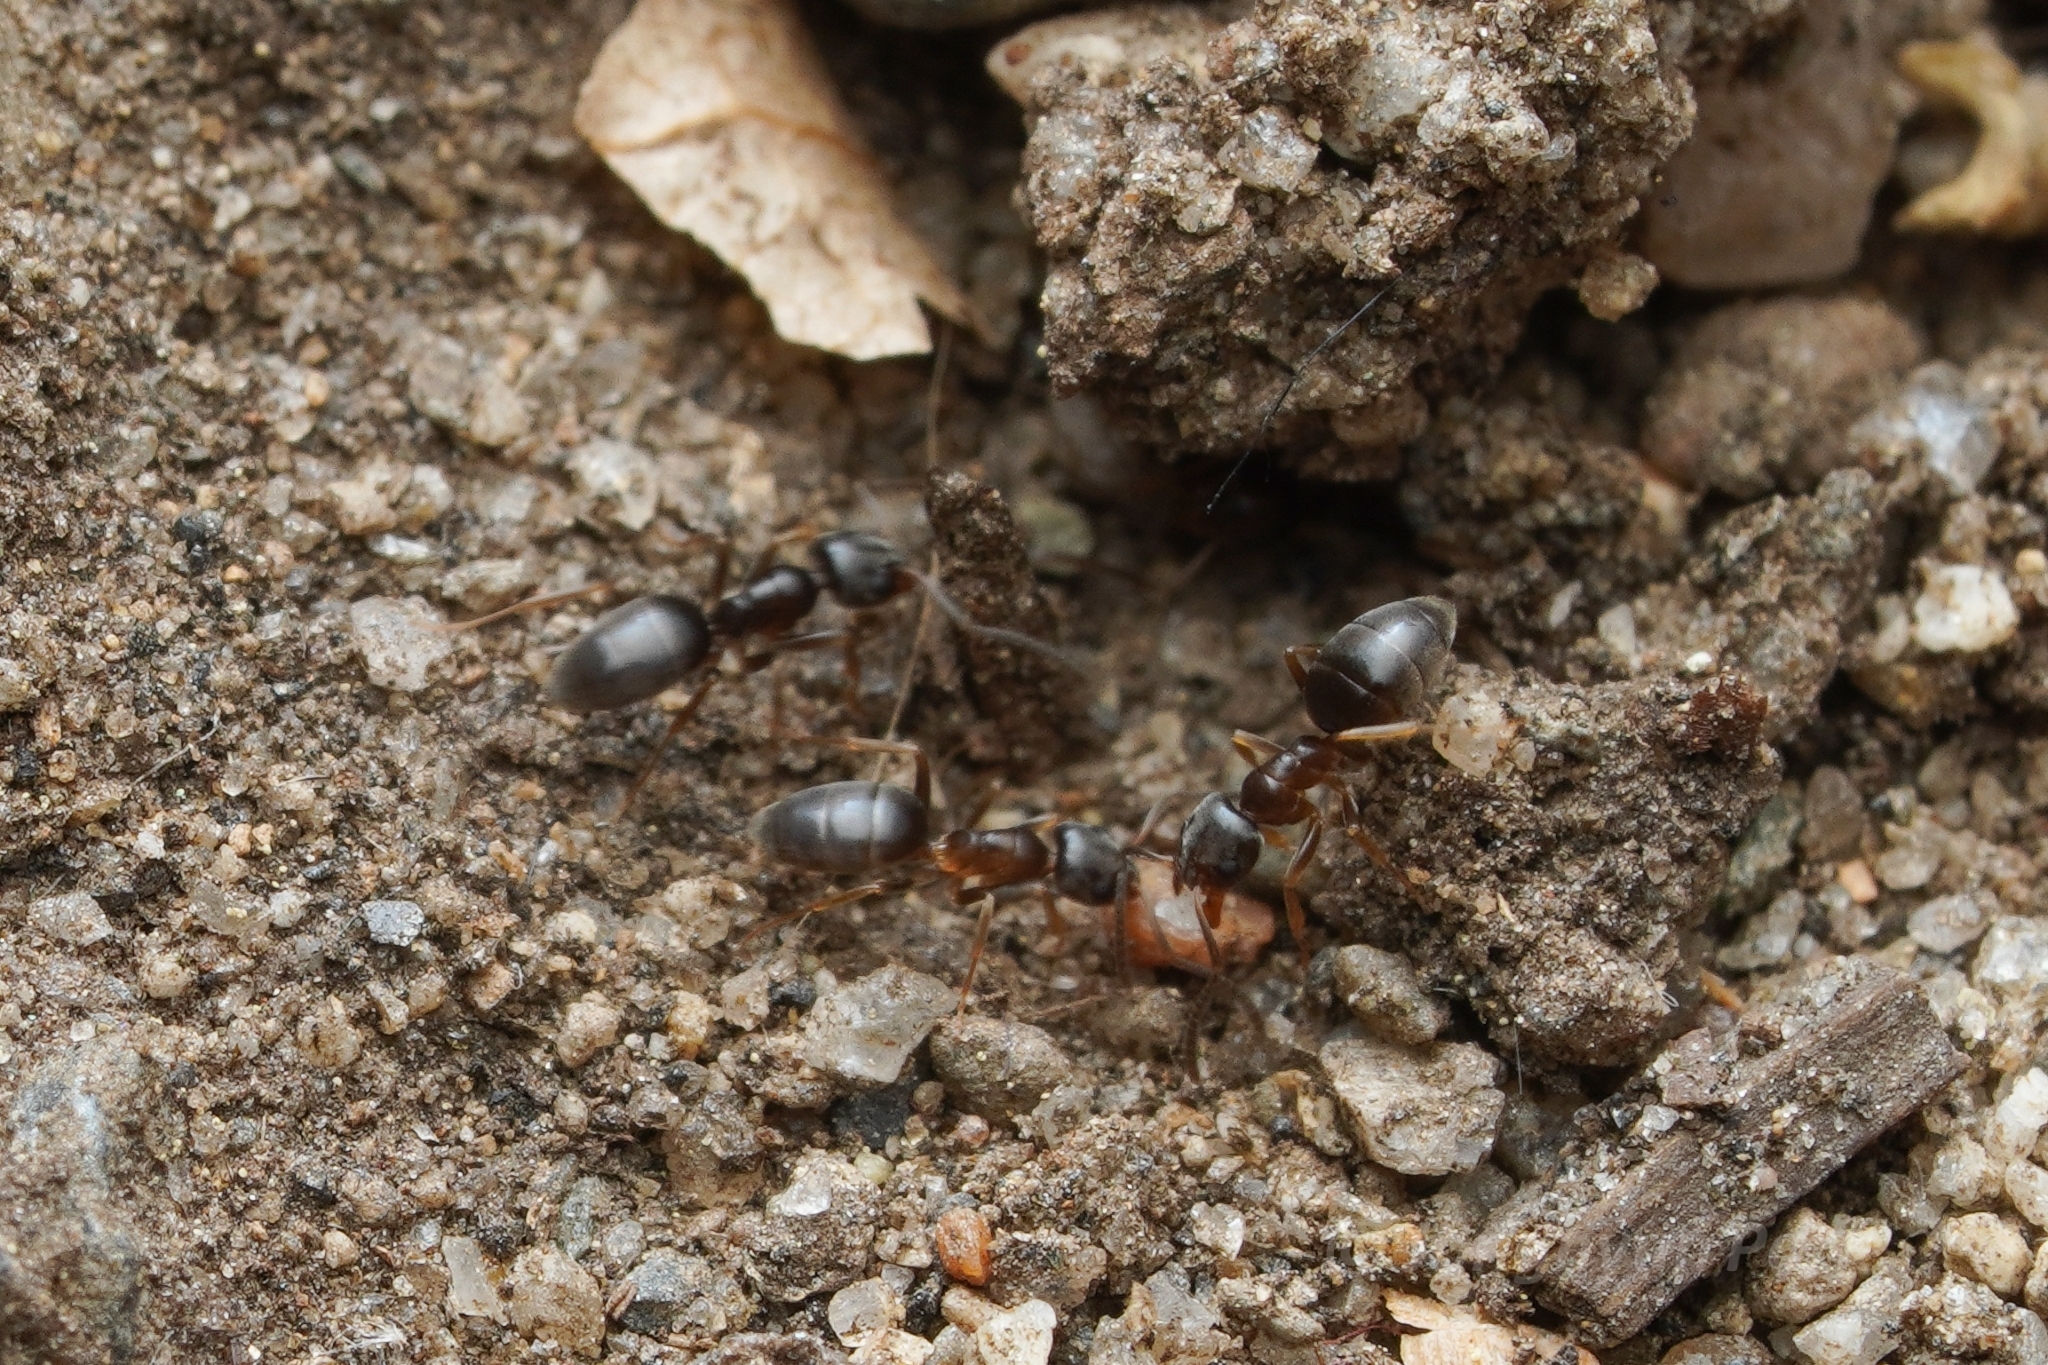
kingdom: Animalia
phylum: Arthropoda
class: Insecta
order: Hymenoptera
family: Formicidae
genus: Tapinoma
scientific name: Tapinoma sessile
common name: Odorous house ant
